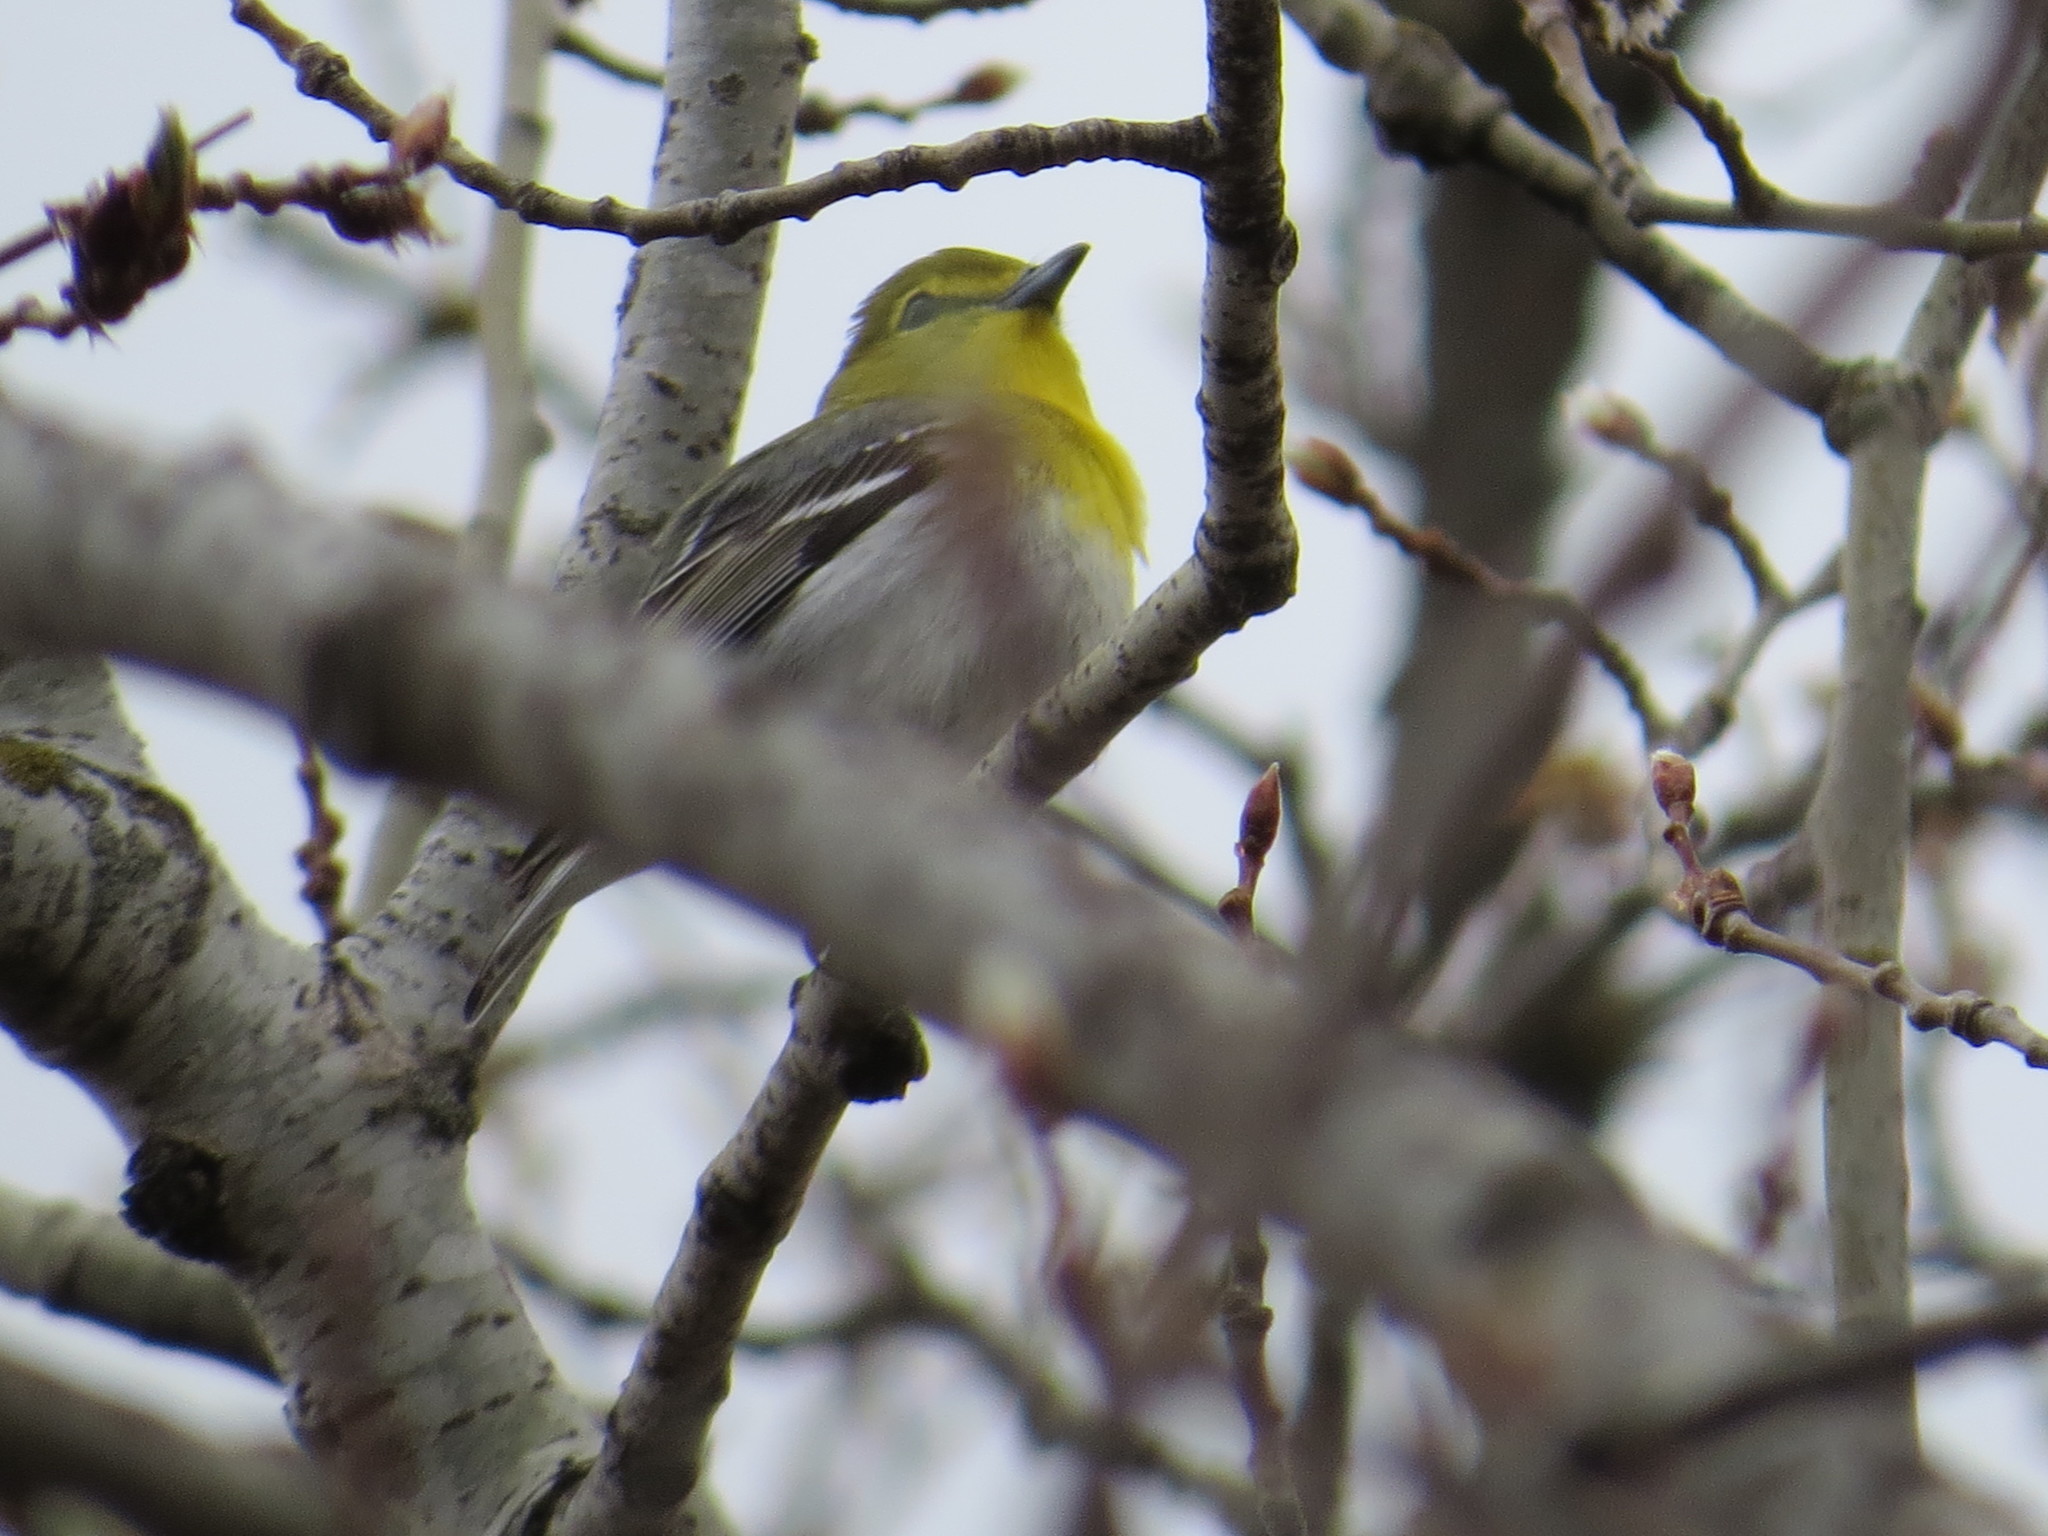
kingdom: Animalia
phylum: Chordata
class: Aves
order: Passeriformes
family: Vireonidae
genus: Vireo
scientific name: Vireo flavifrons
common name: Yellow-throated vireo
